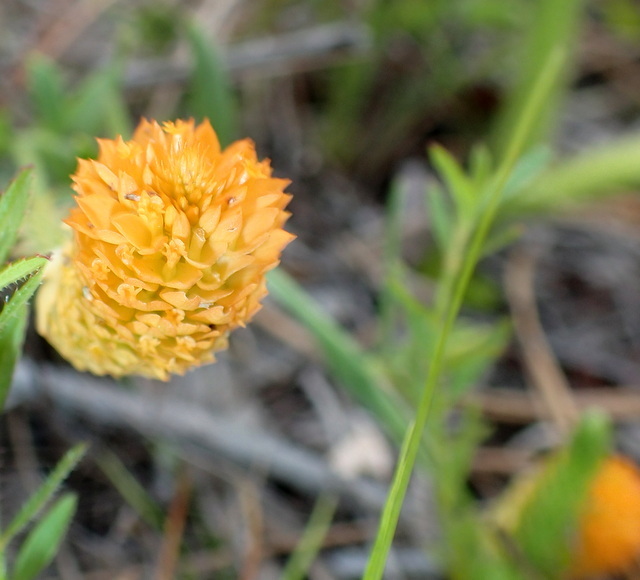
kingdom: Plantae
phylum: Tracheophyta
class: Magnoliopsida
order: Fabales
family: Polygalaceae
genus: Polygala
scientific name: Polygala lutea
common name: Orange milkwort
